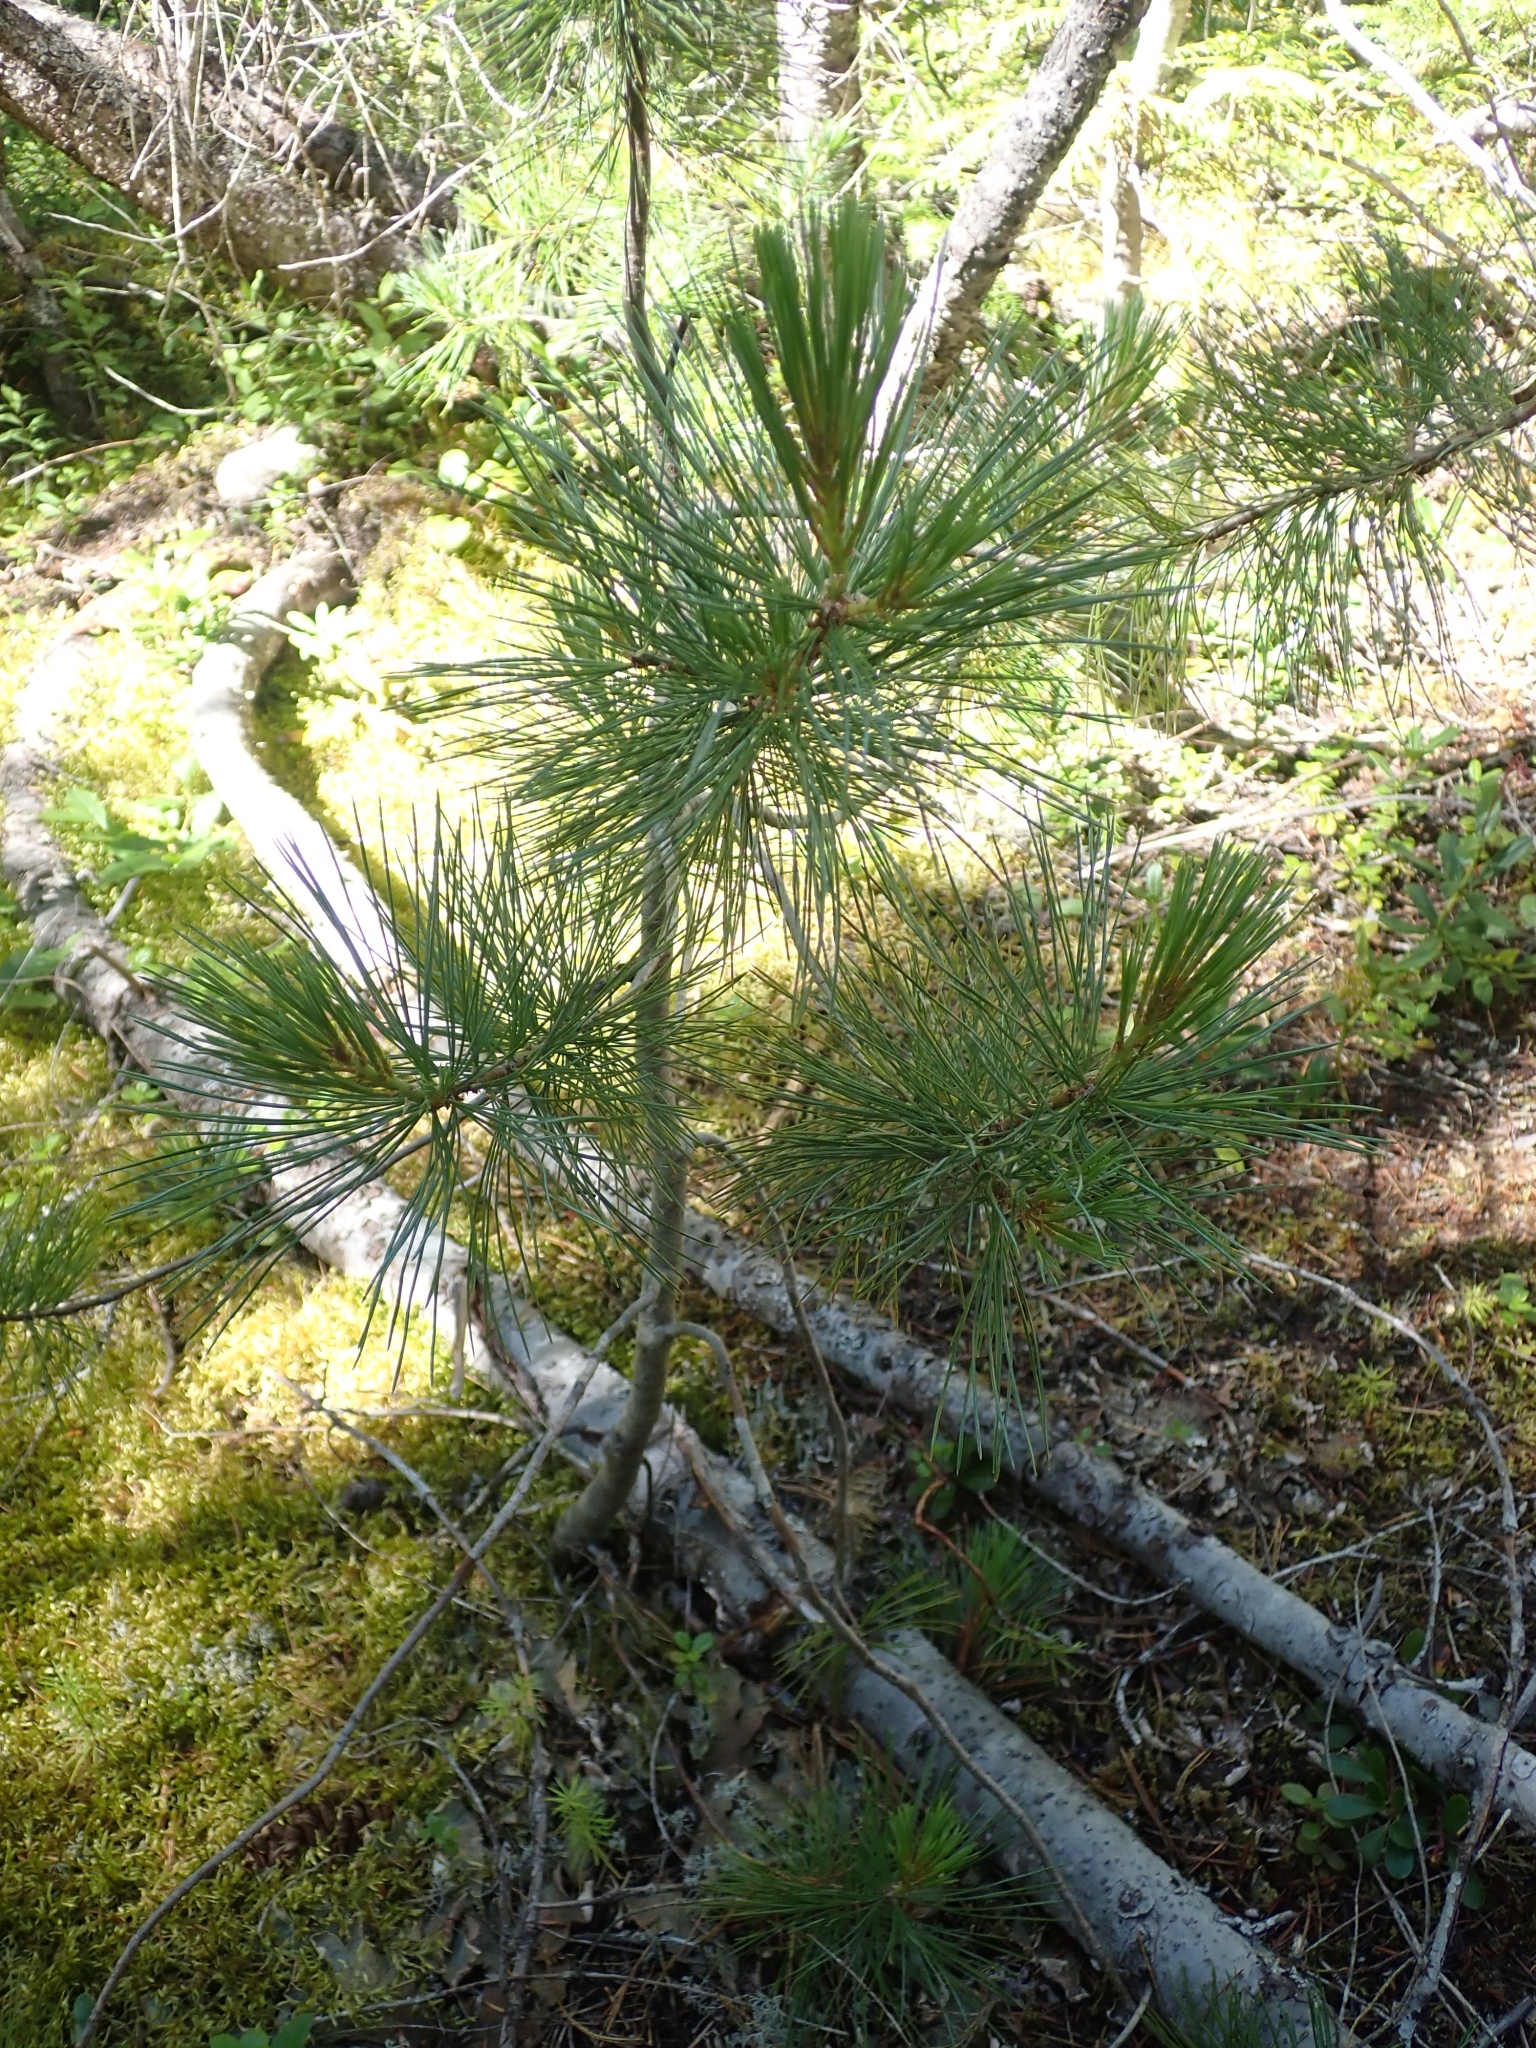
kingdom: Plantae
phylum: Tracheophyta
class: Pinopsida
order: Pinales
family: Pinaceae
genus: Pinus
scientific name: Pinus monticola
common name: Western white pine
